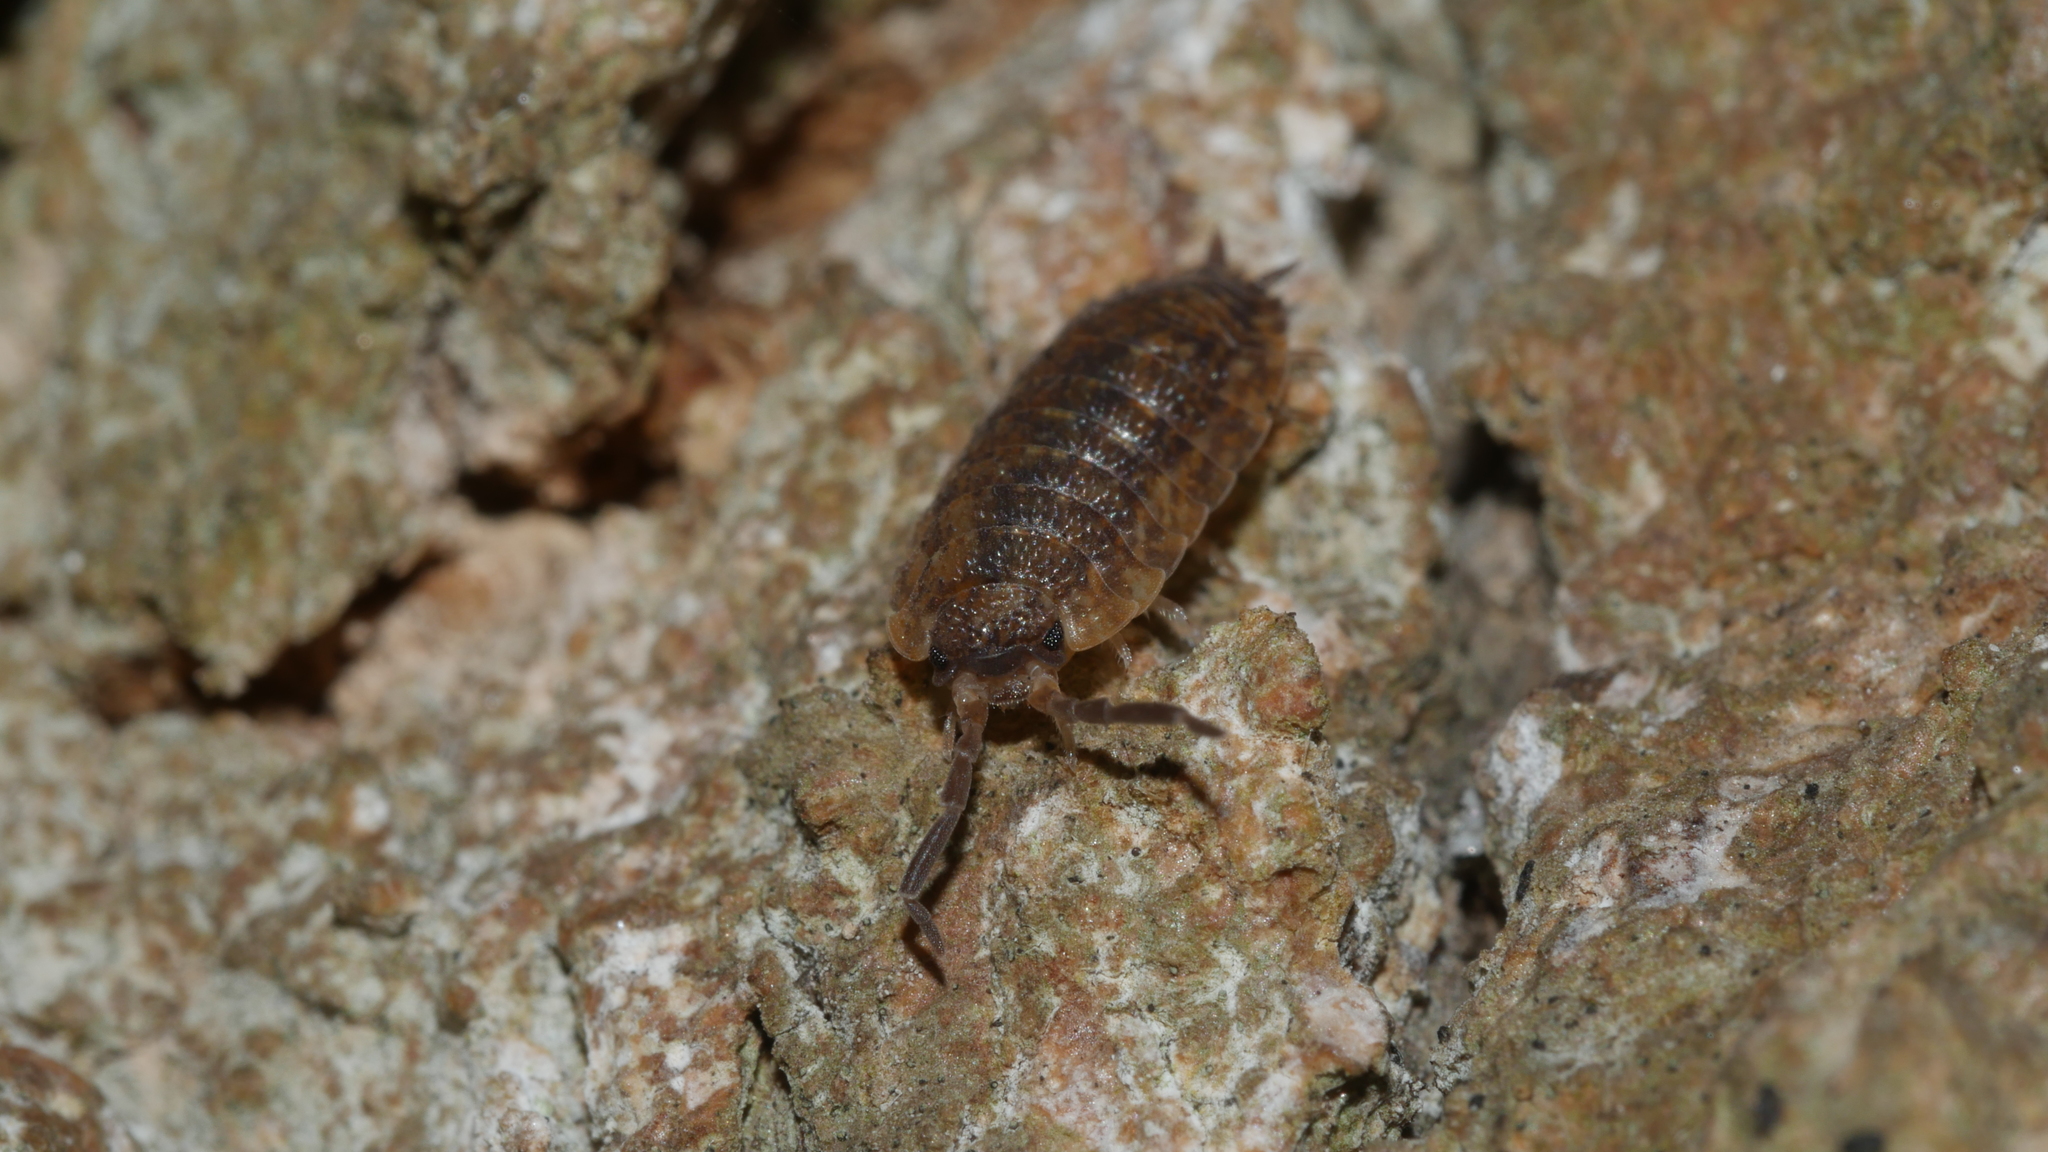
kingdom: Animalia
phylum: Arthropoda
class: Malacostraca
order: Isopoda
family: Porcellionidae
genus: Porcellio
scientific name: Porcellio scaber
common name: Common rough woodlouse
